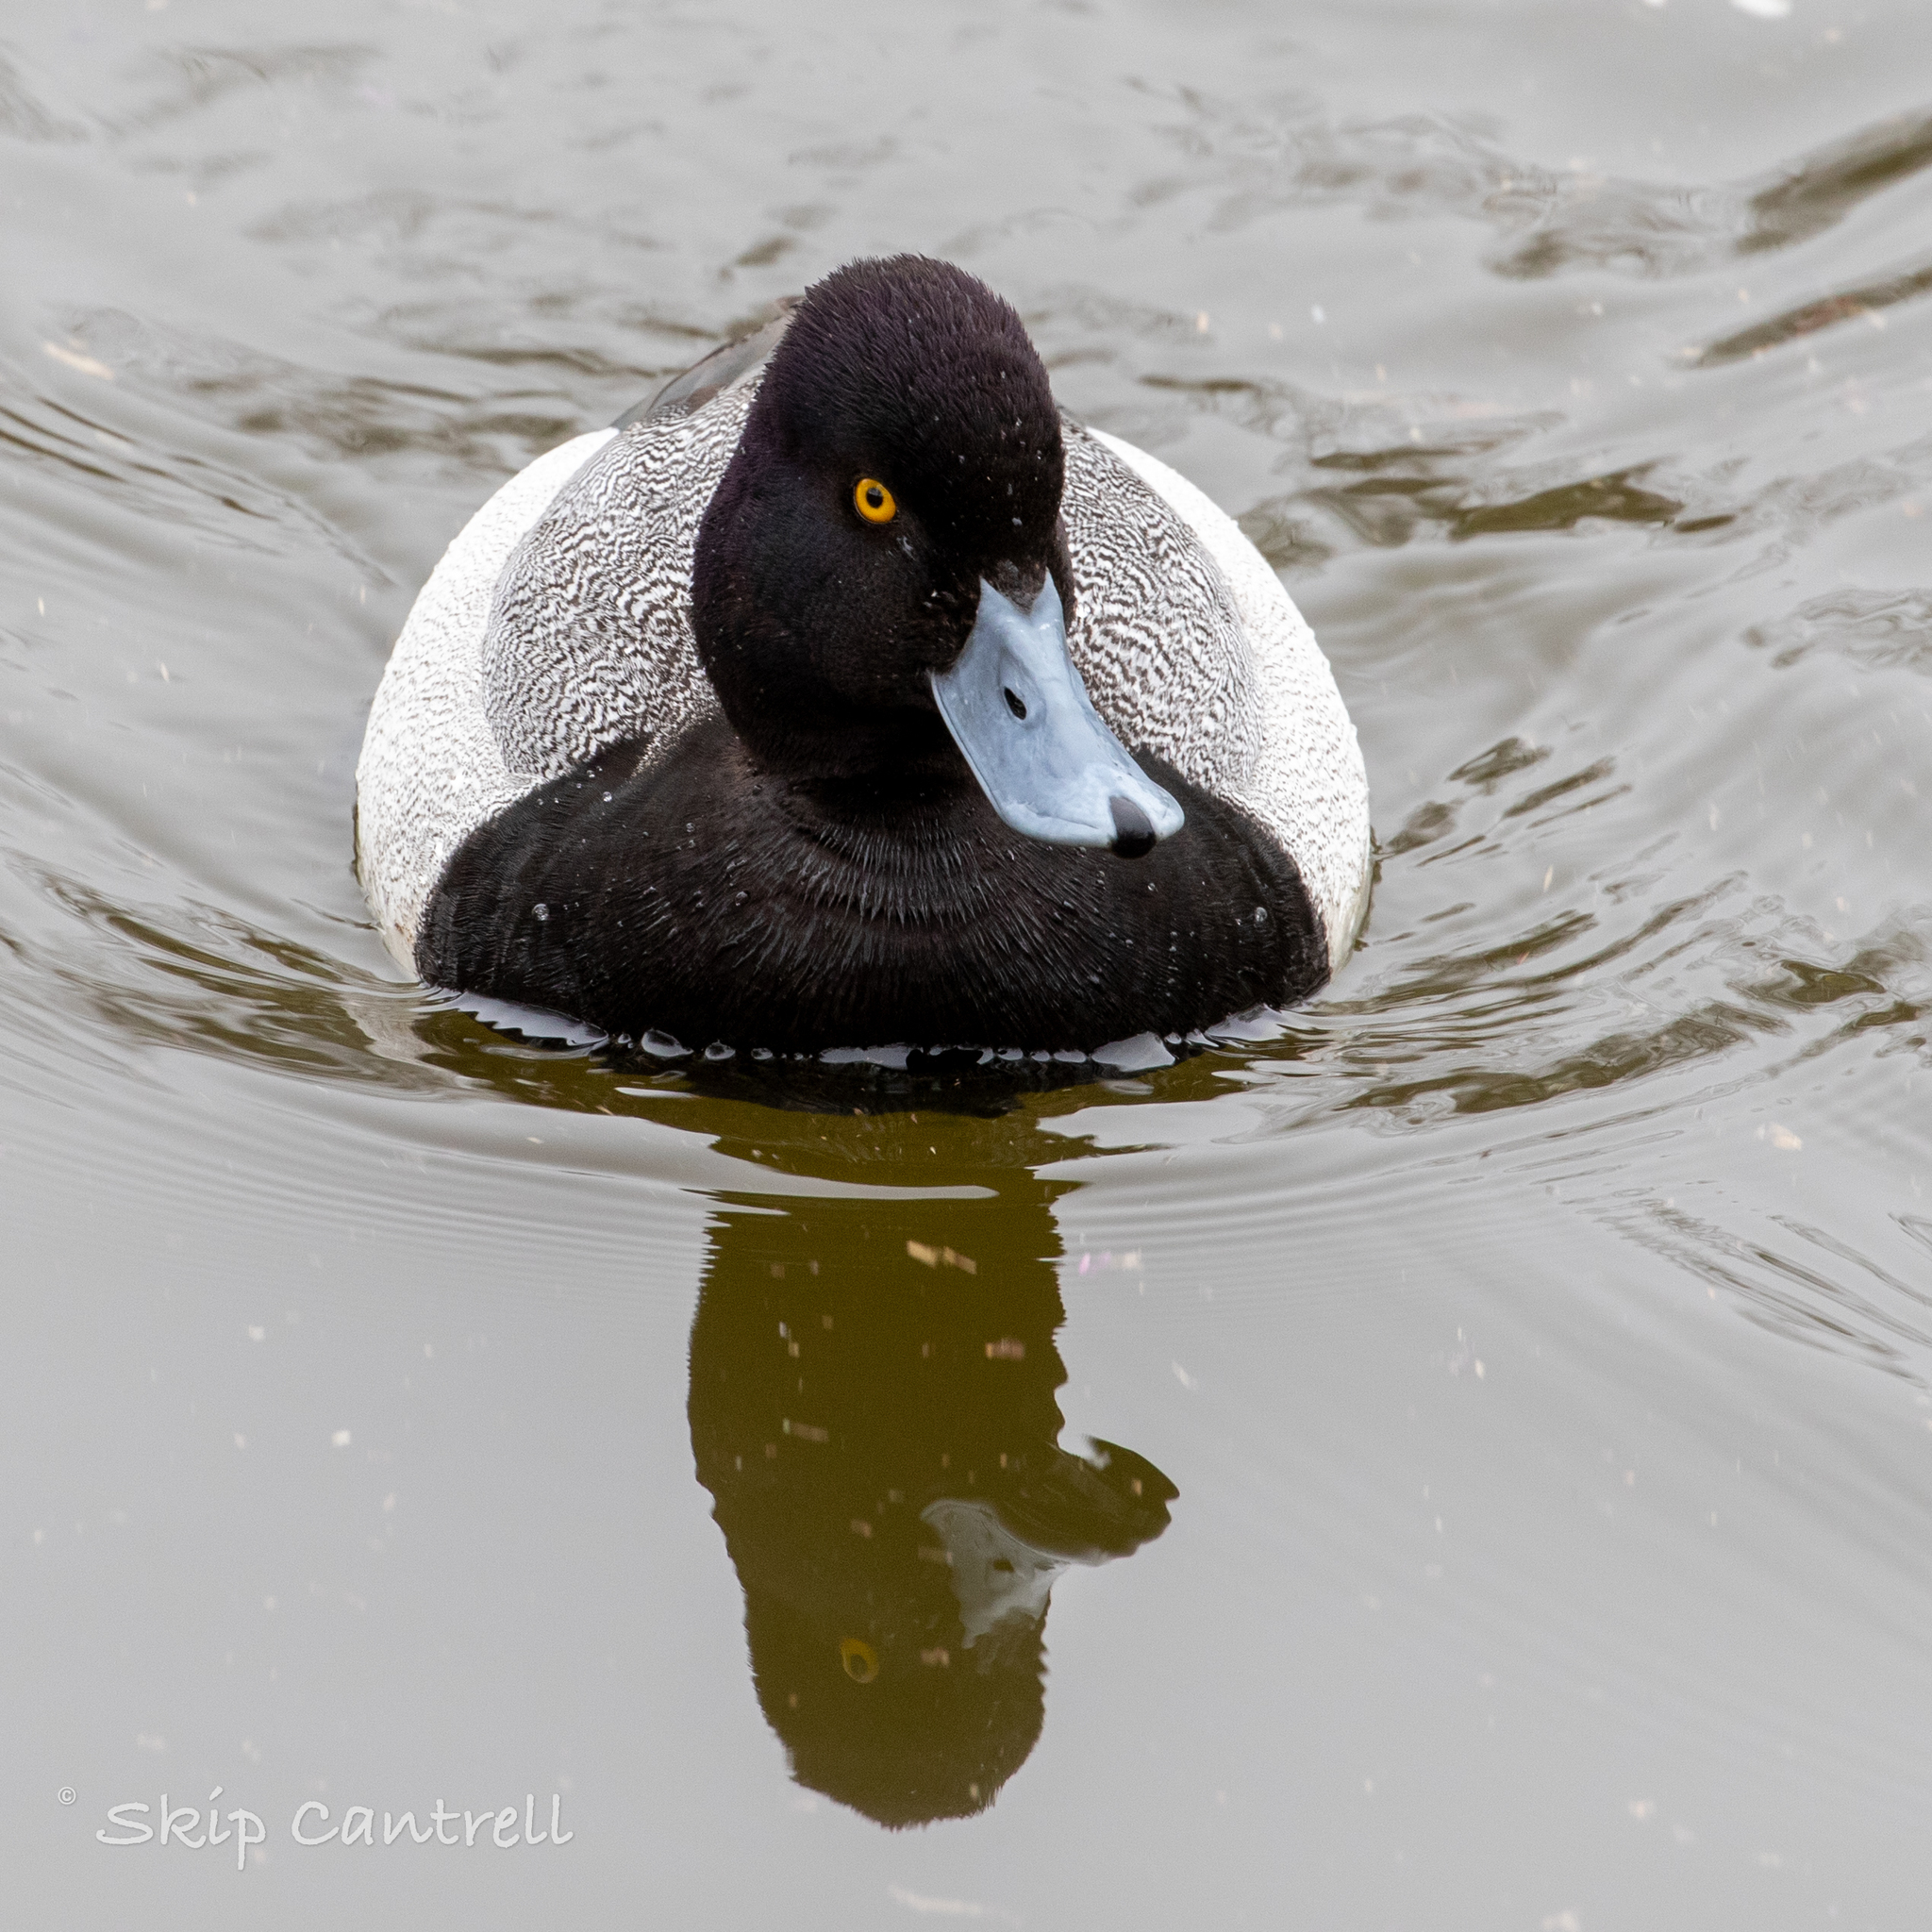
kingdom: Animalia
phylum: Chordata
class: Aves
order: Anseriformes
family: Anatidae
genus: Aythya
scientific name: Aythya affinis
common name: Lesser scaup
